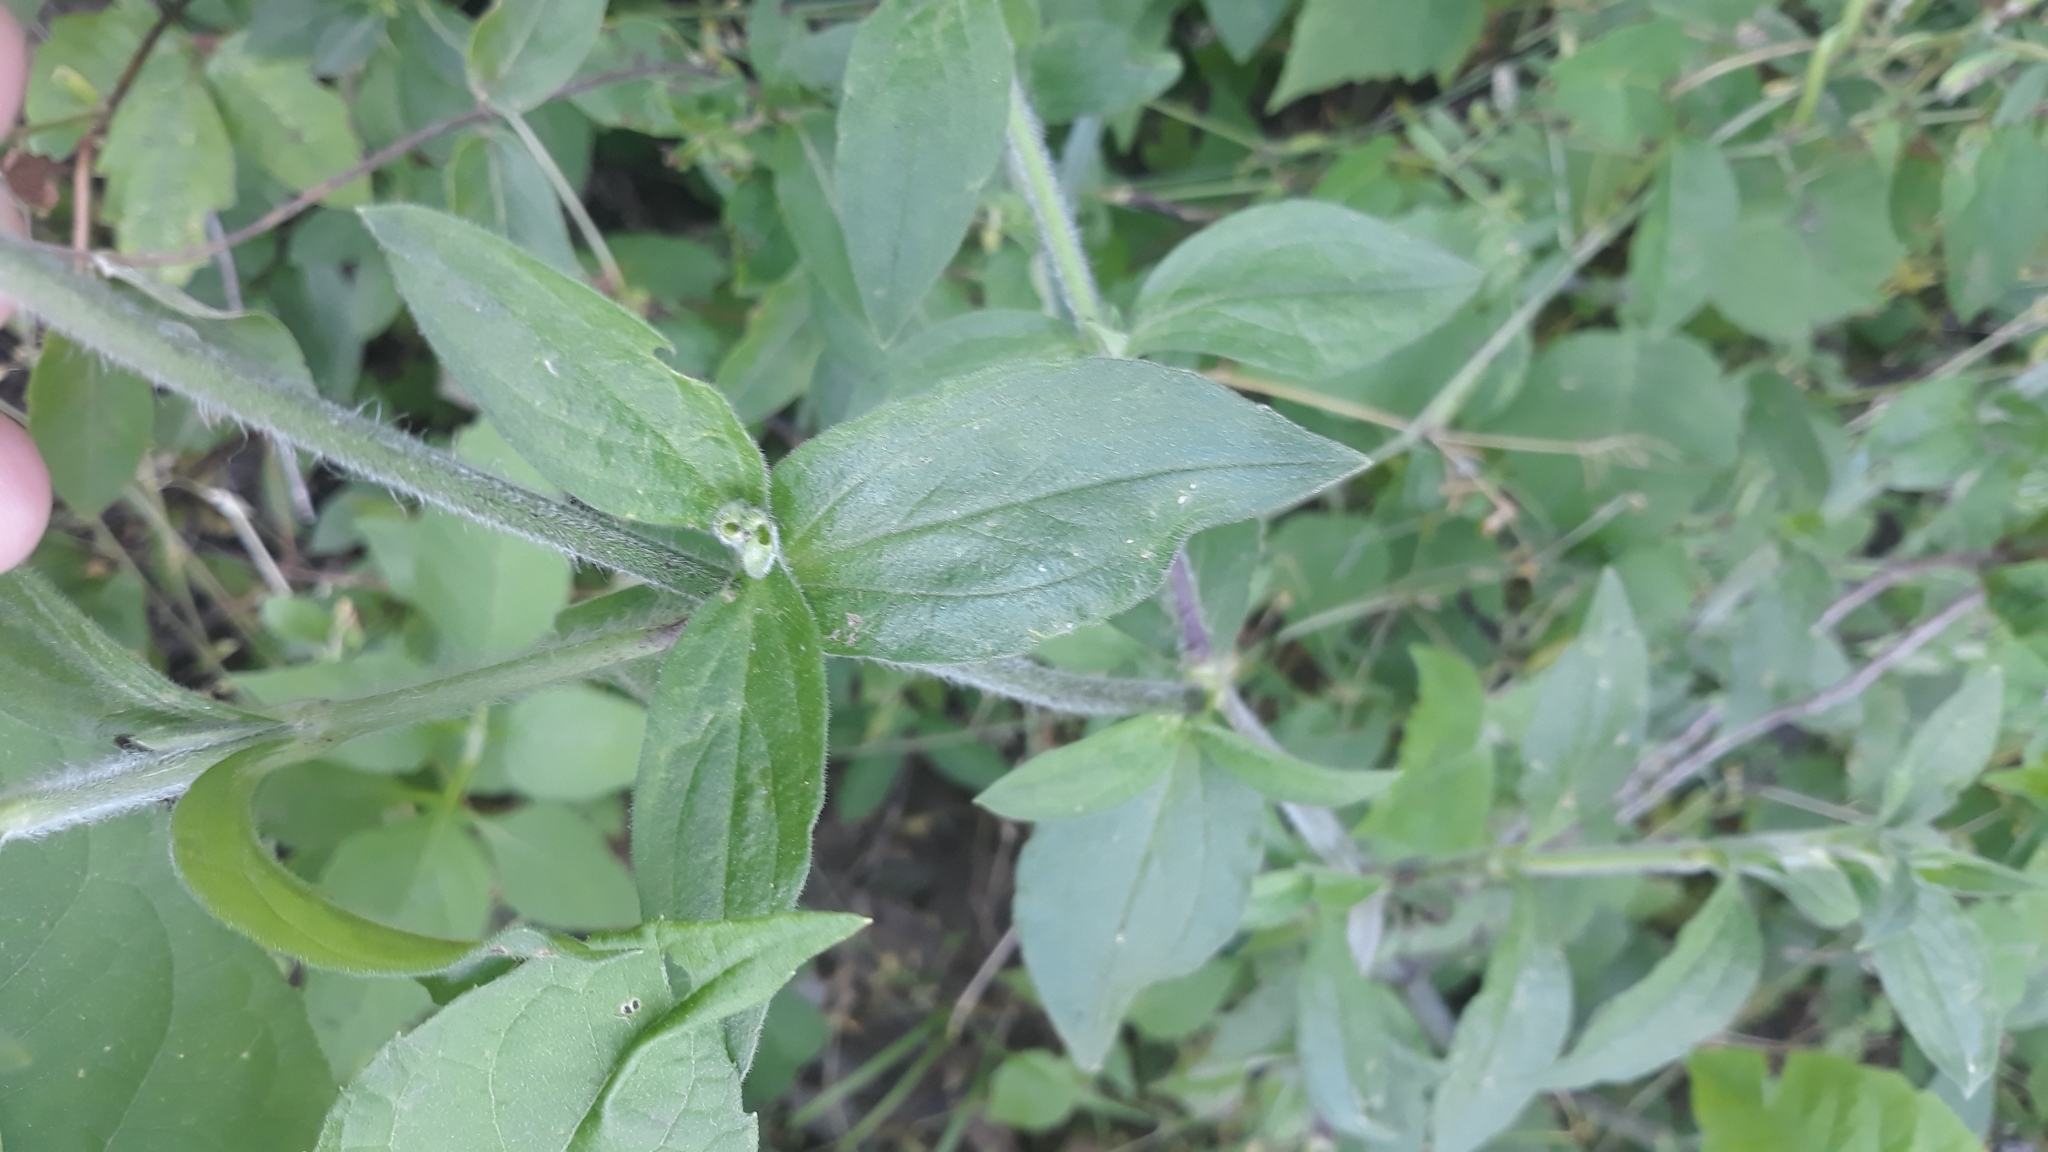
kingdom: Plantae
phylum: Tracheophyta
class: Magnoliopsida
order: Caryophyllales
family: Caryophyllaceae
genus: Silene
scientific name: Silene latifolia
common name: White campion
